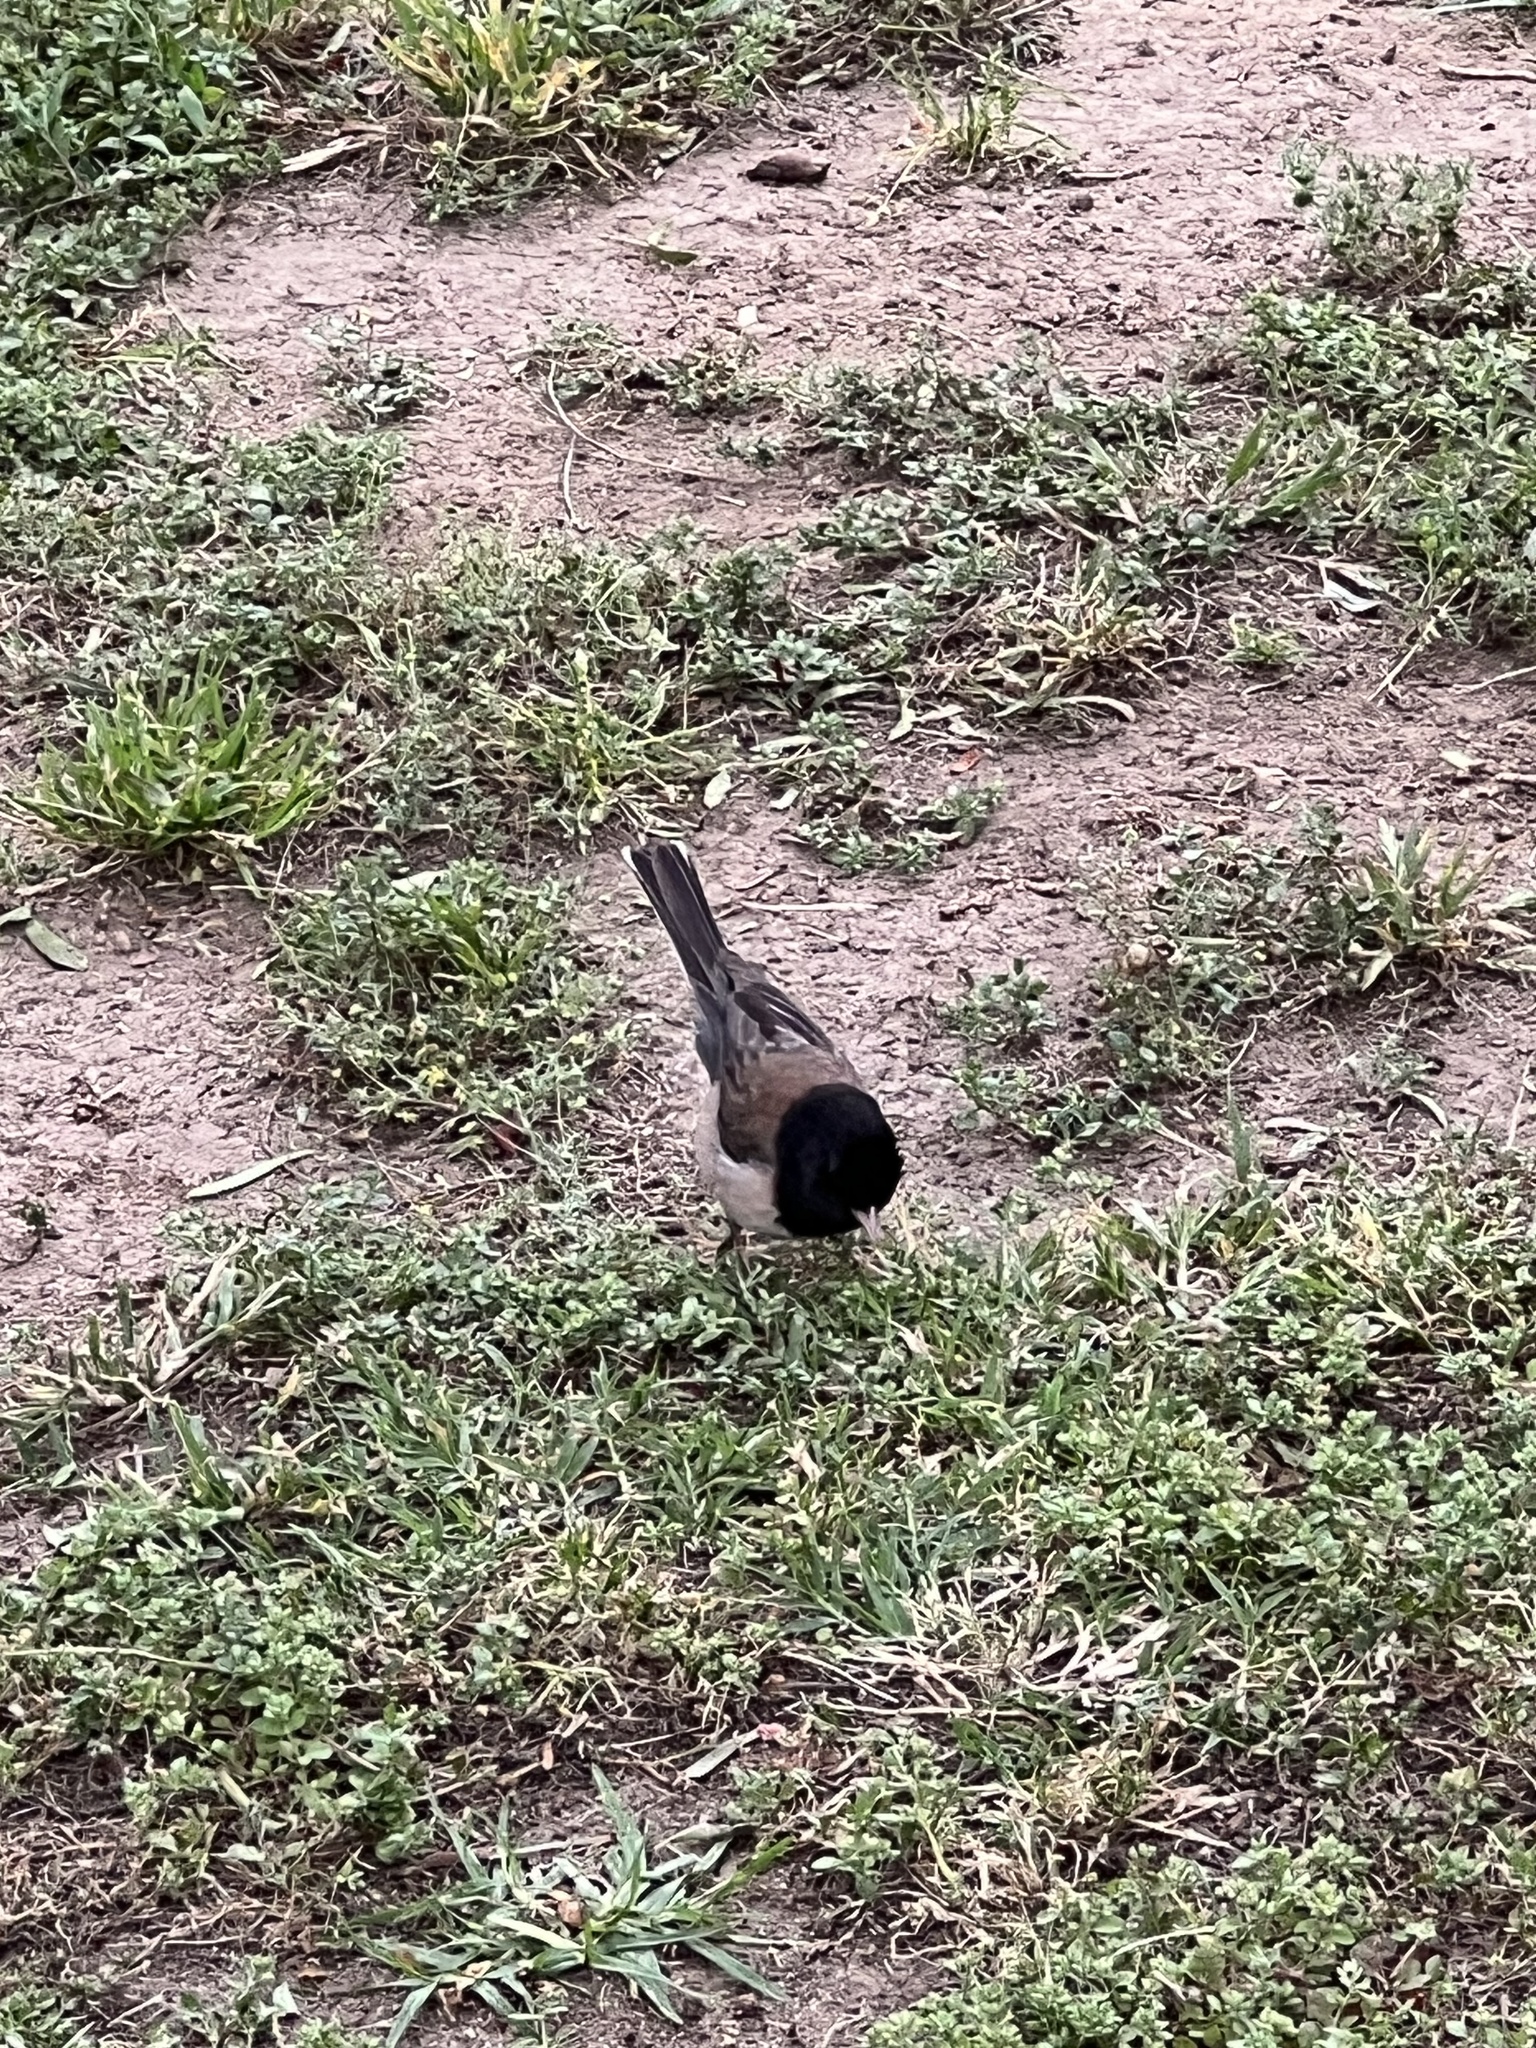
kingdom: Animalia
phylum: Chordata
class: Aves
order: Passeriformes
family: Passerellidae
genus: Junco
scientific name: Junco hyemalis
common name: Dark-eyed junco
